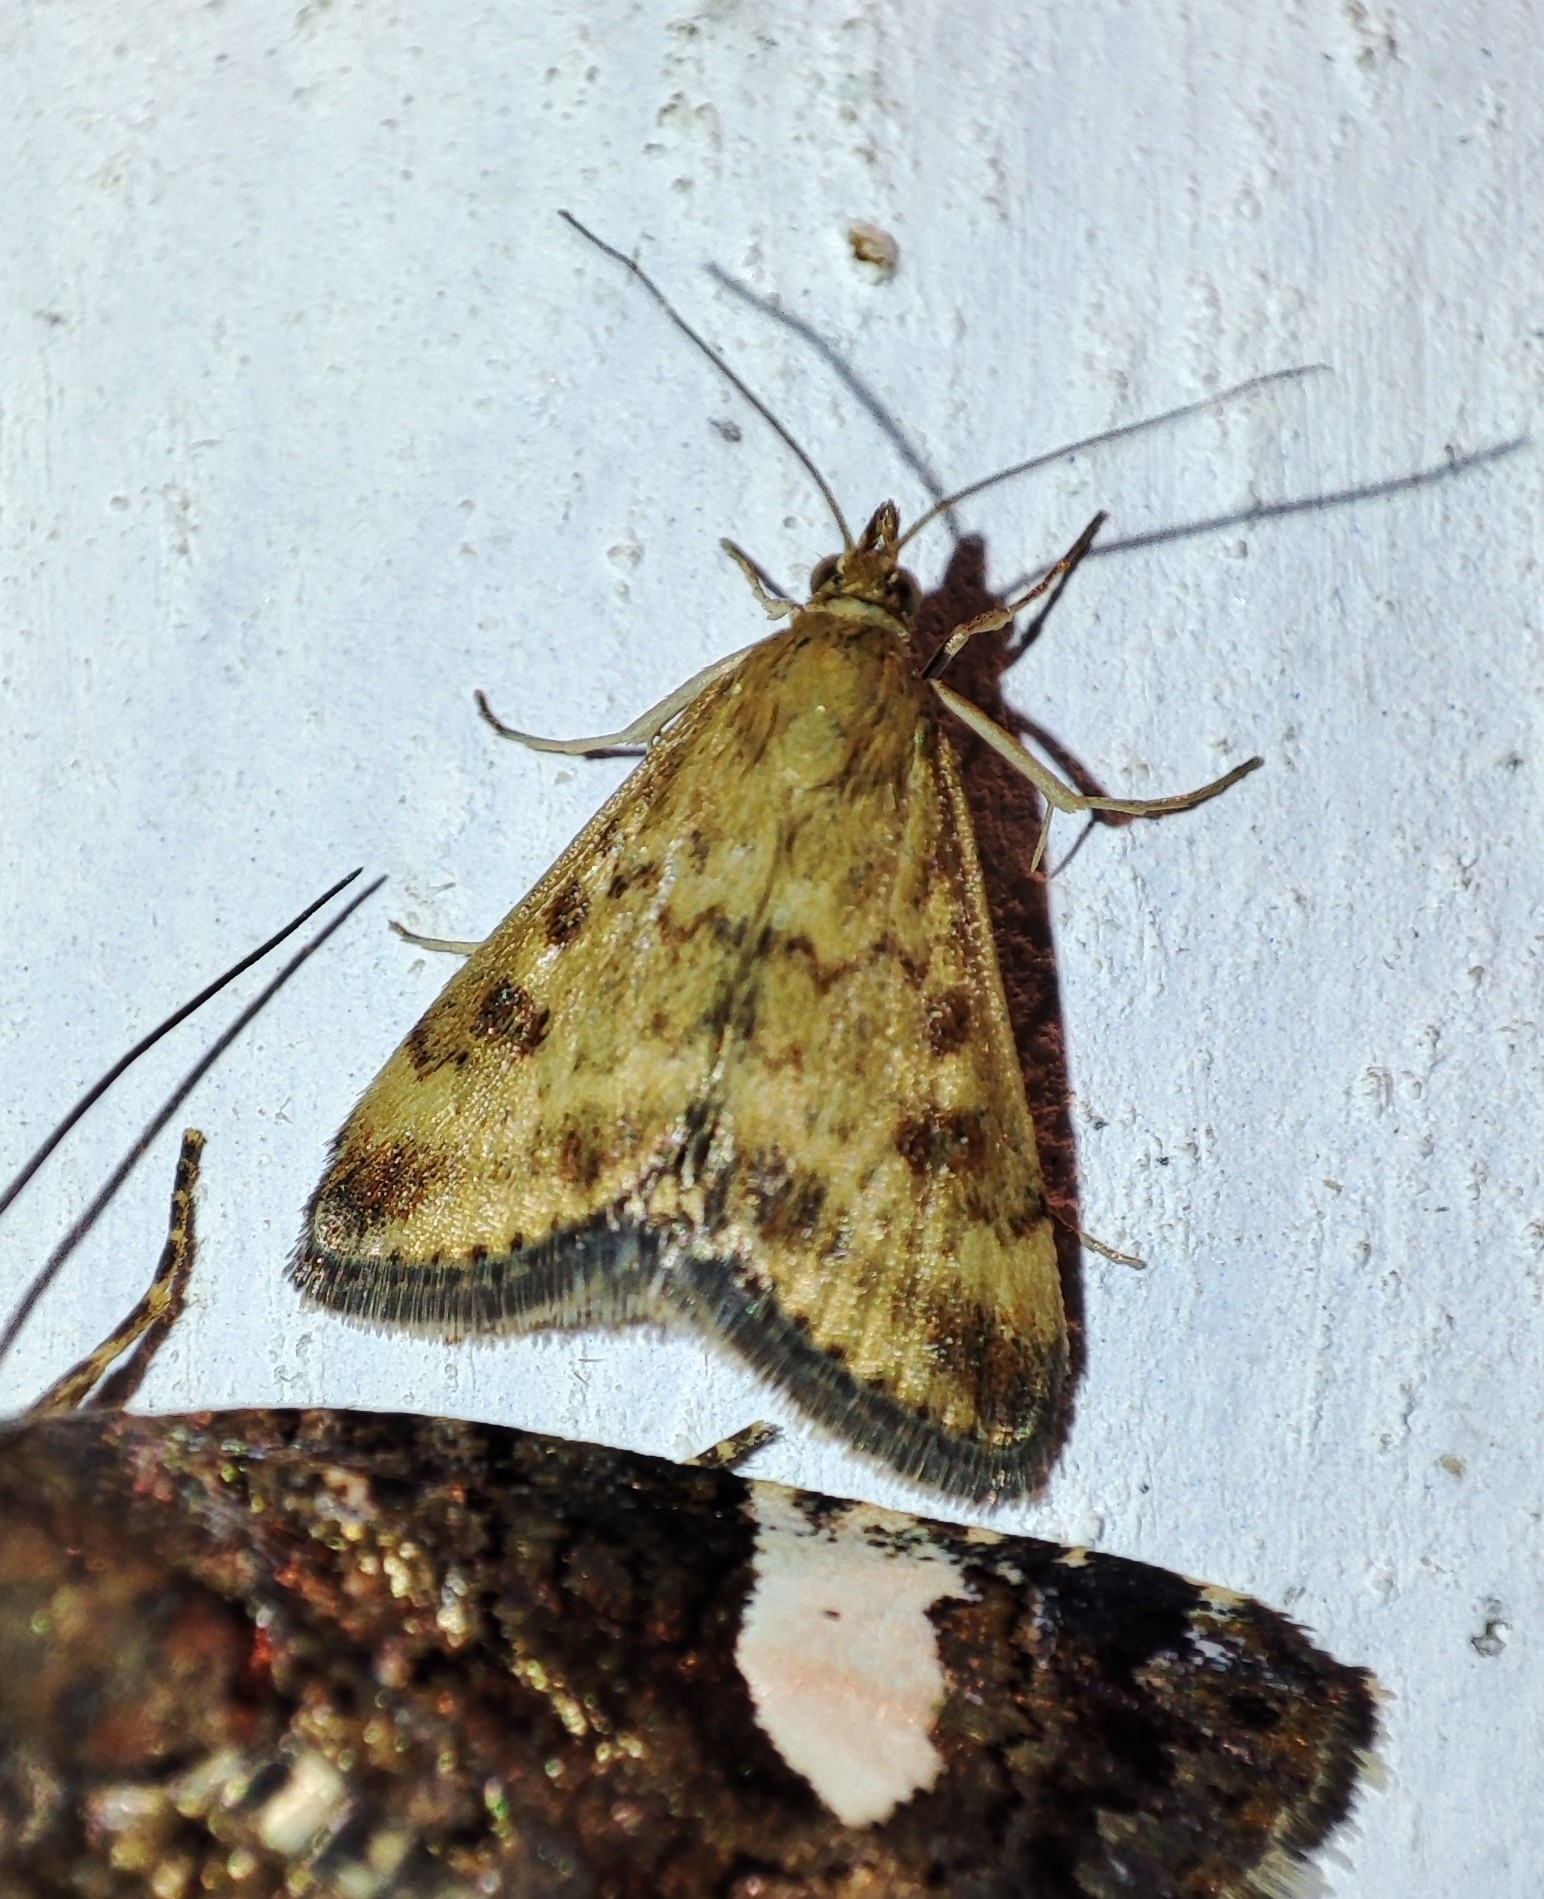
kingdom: Animalia
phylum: Arthropoda
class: Insecta
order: Lepidoptera
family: Crambidae
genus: Pyrausta
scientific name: Pyrausta despicata
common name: Straw-barred pearl
